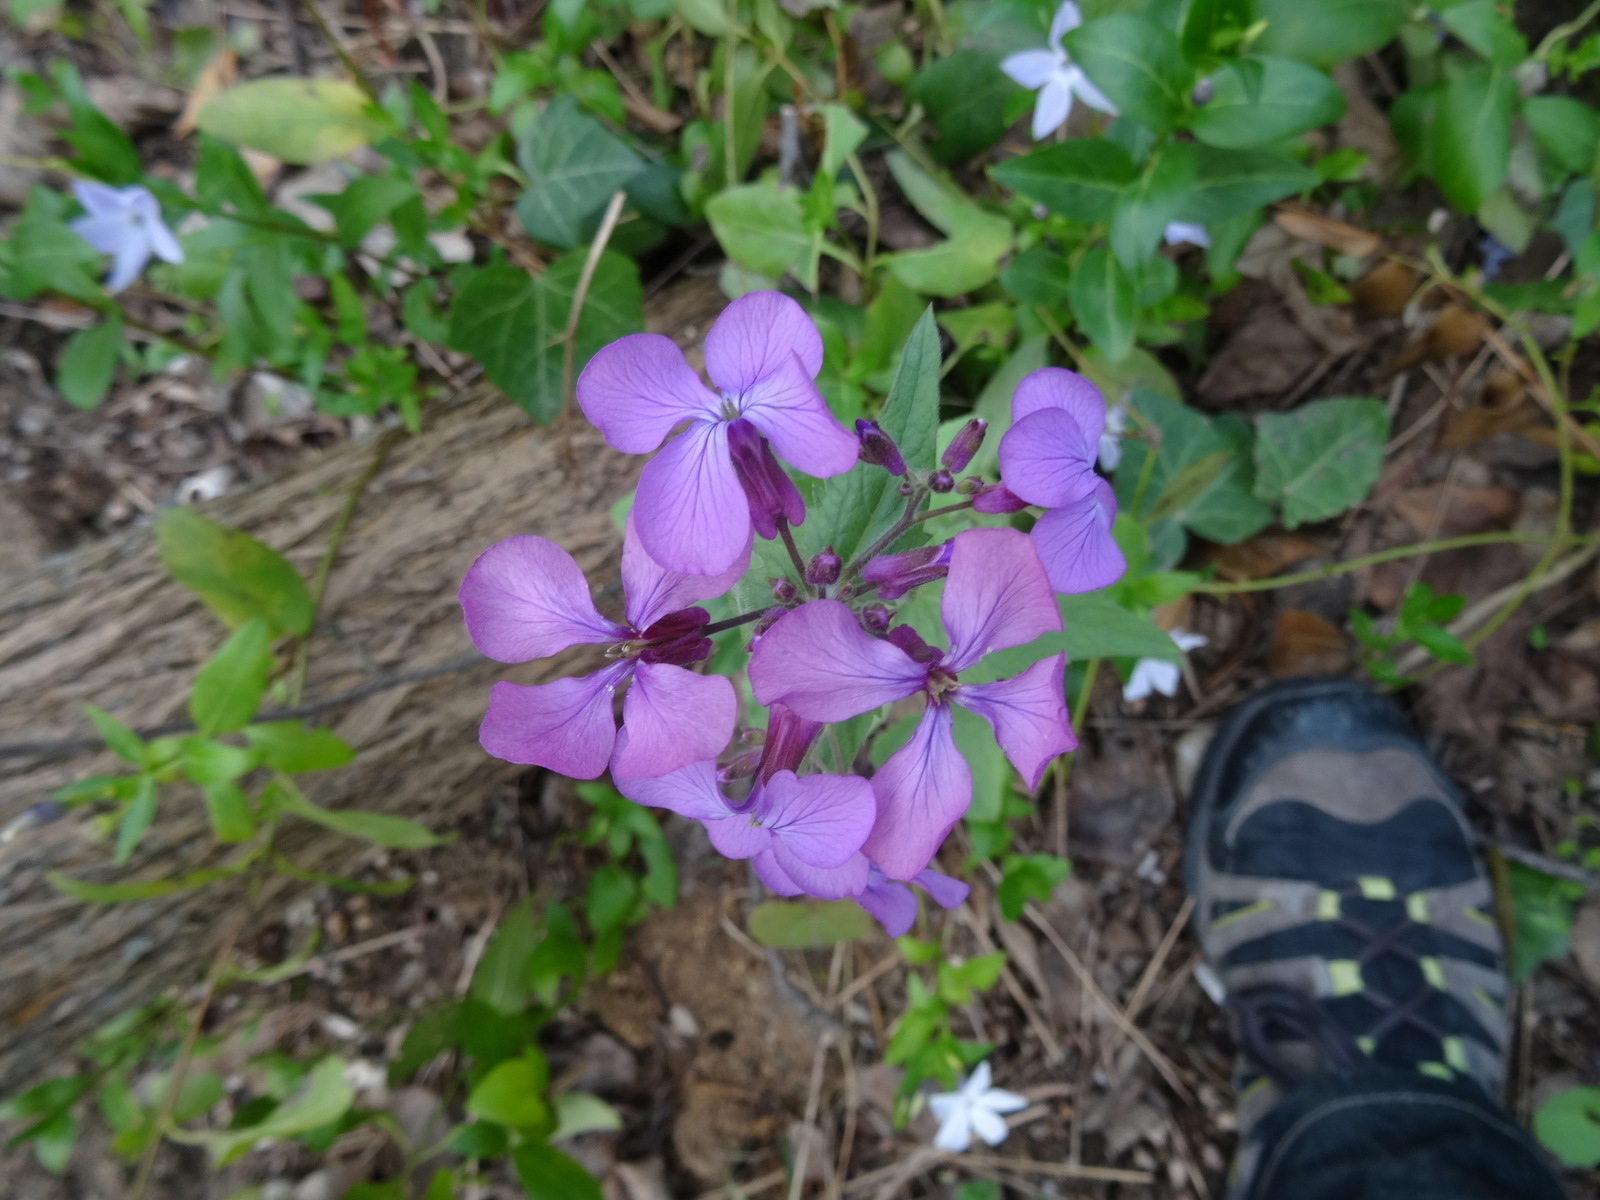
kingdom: Plantae
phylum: Tracheophyta
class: Magnoliopsida
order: Brassicales
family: Brassicaceae
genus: Lunaria
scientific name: Lunaria annua
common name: Honesty
